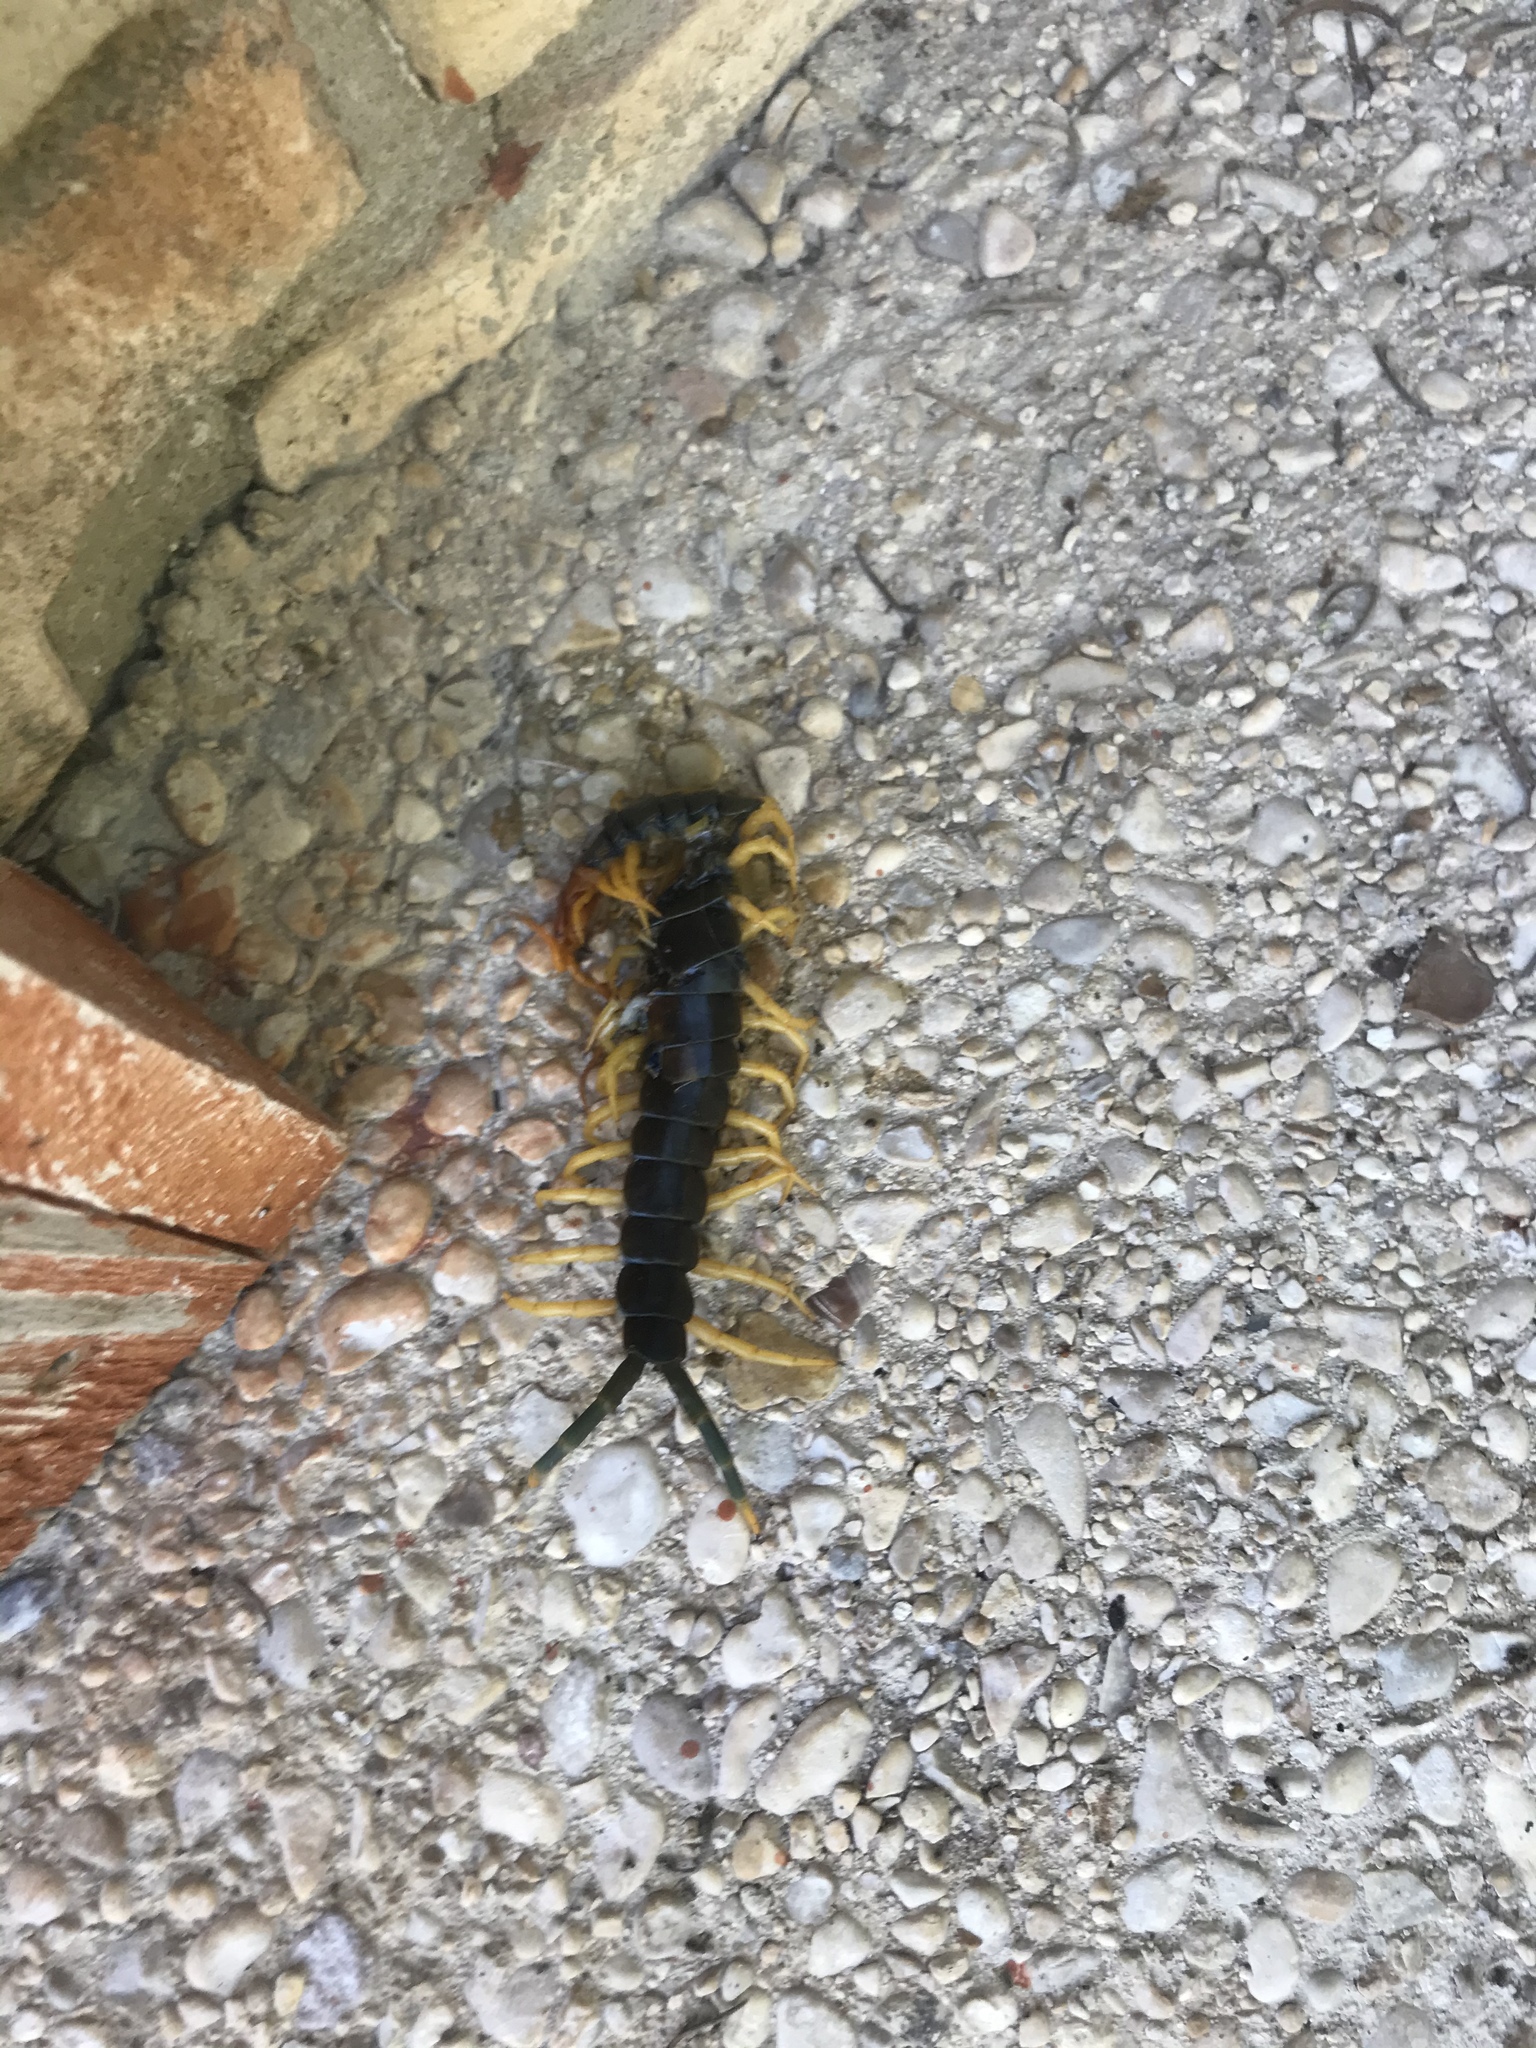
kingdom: Animalia
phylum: Arthropoda
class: Chilopoda
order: Scolopendromorpha
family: Scolopendridae
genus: Scolopendra
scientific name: Scolopendra heros
